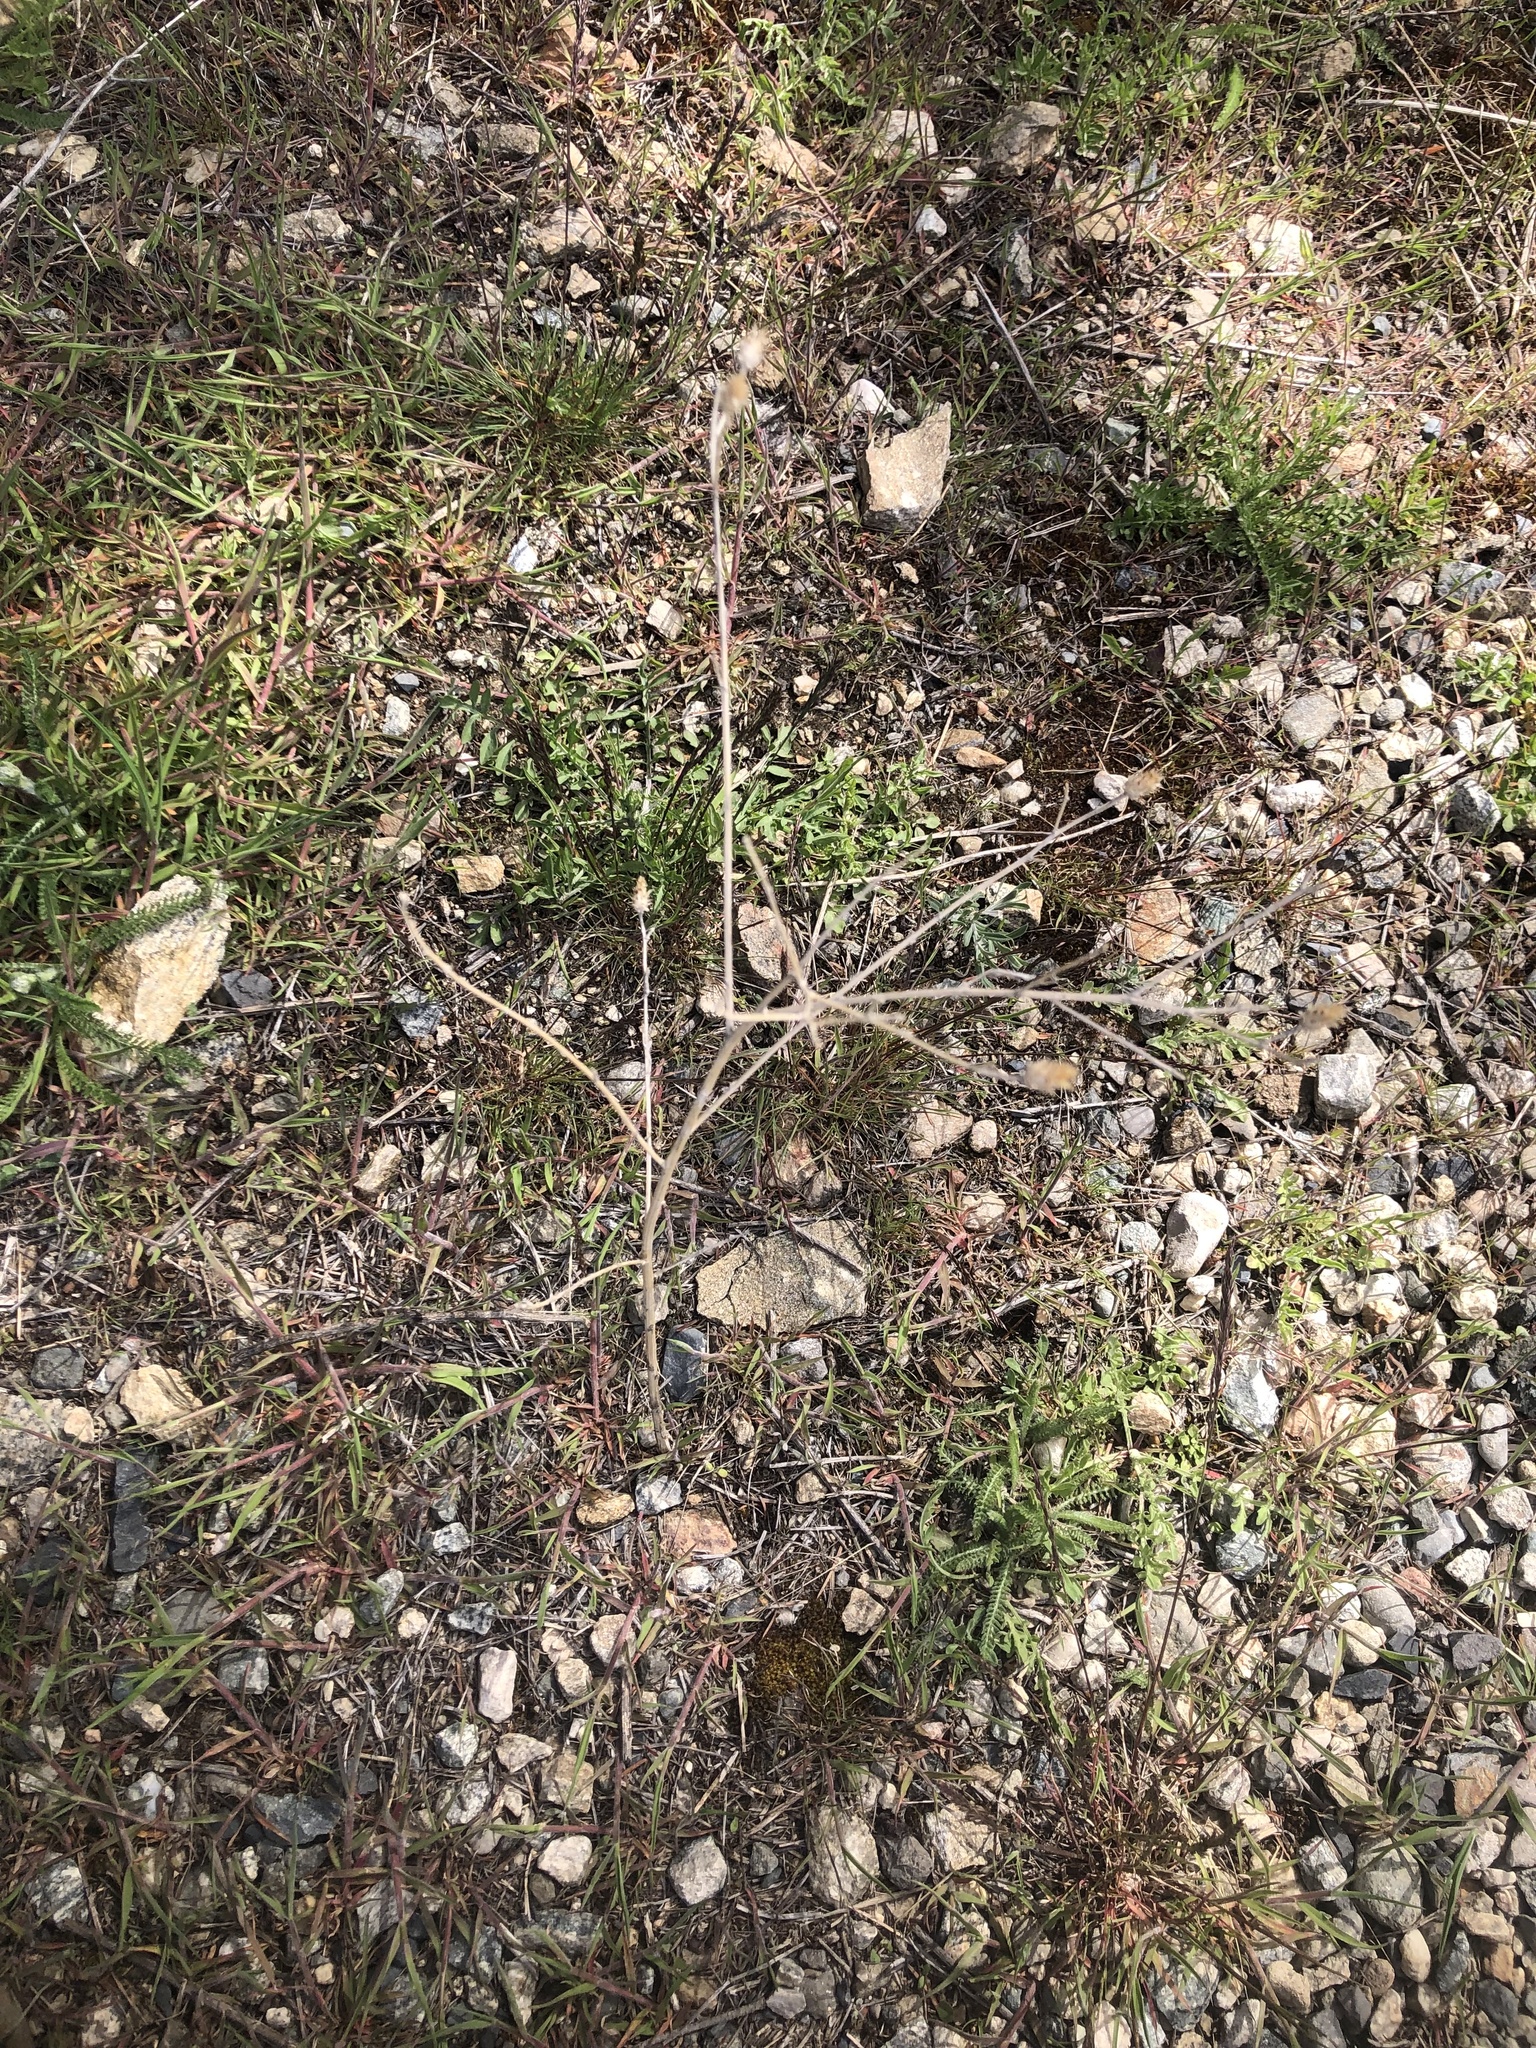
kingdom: Plantae
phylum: Tracheophyta
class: Magnoliopsida
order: Asterales
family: Asteraceae
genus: Centaurea
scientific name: Centaurea diffusa
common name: Diffuse knapweed
